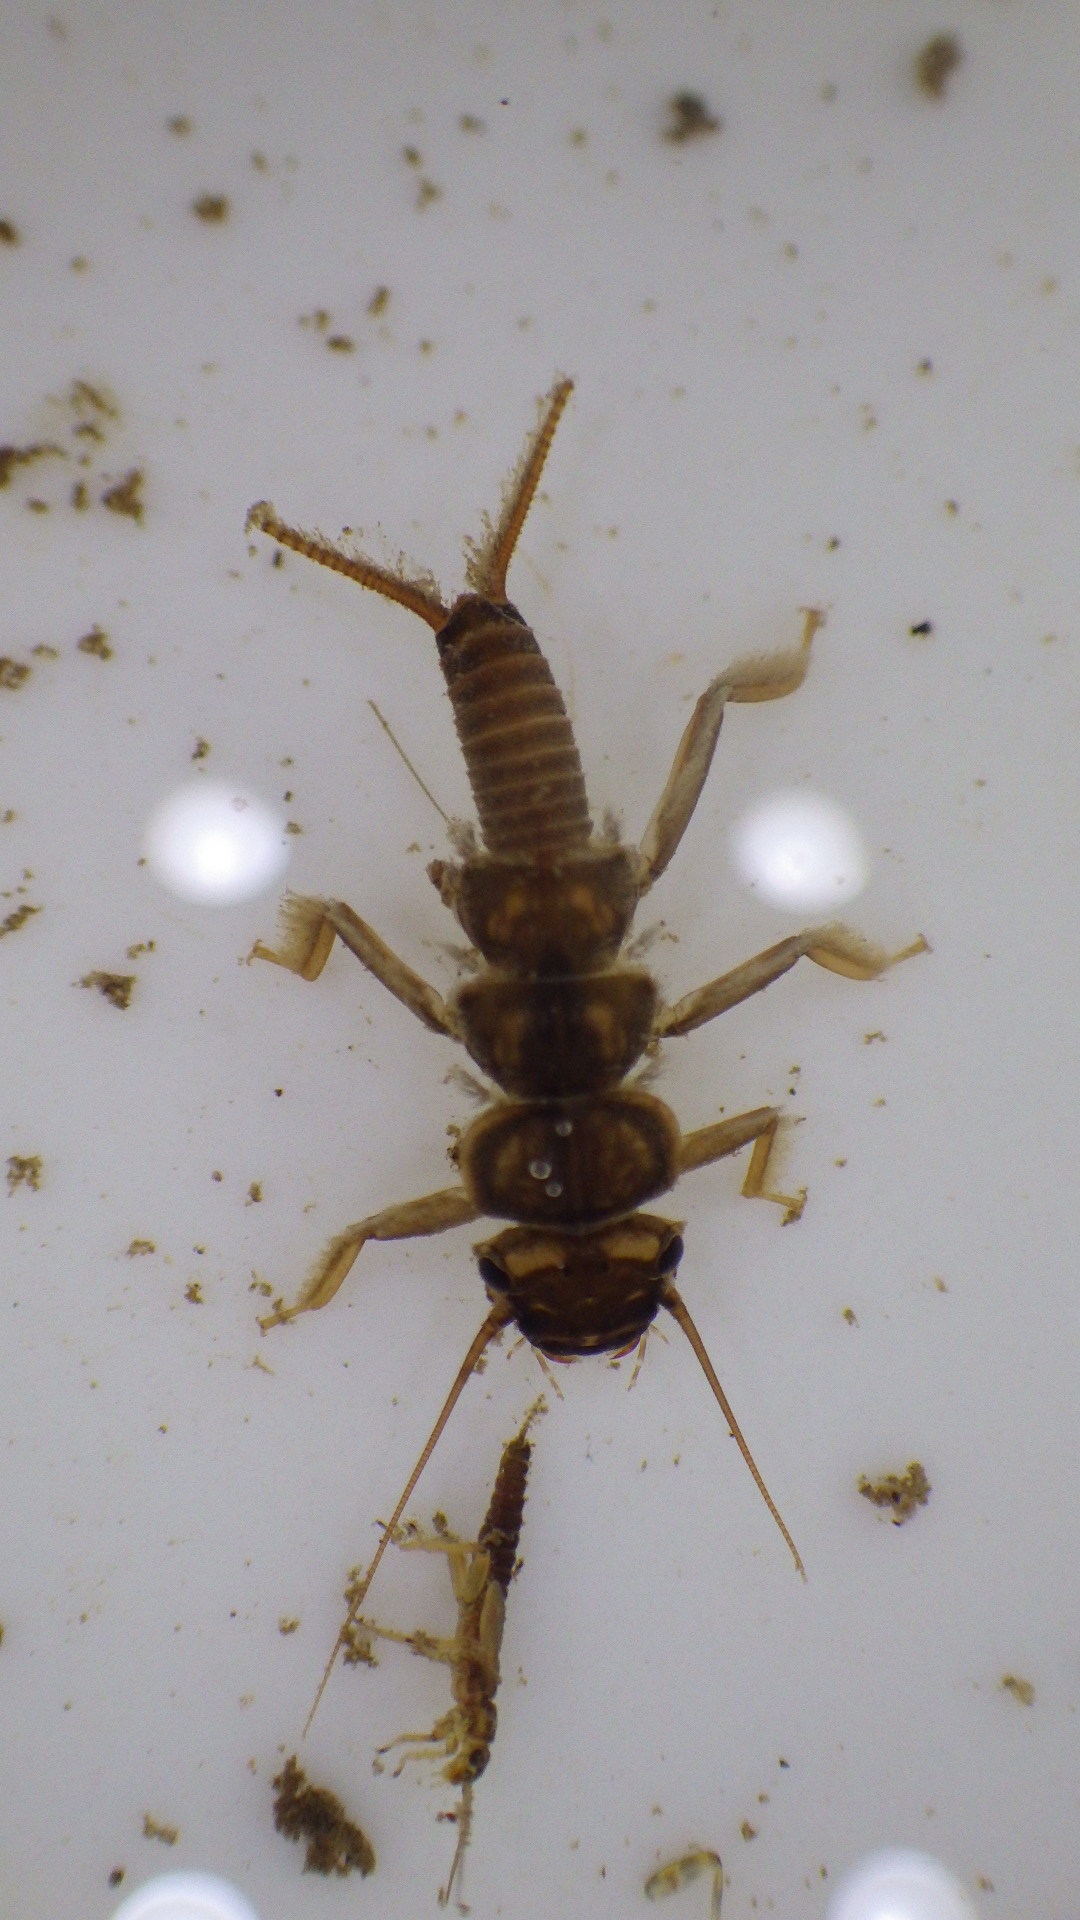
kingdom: Animalia
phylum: Arthropoda
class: Insecta
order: Plecoptera
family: Perlidae
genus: Acroneuria
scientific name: Acroneuria abnormis
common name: Common stone
